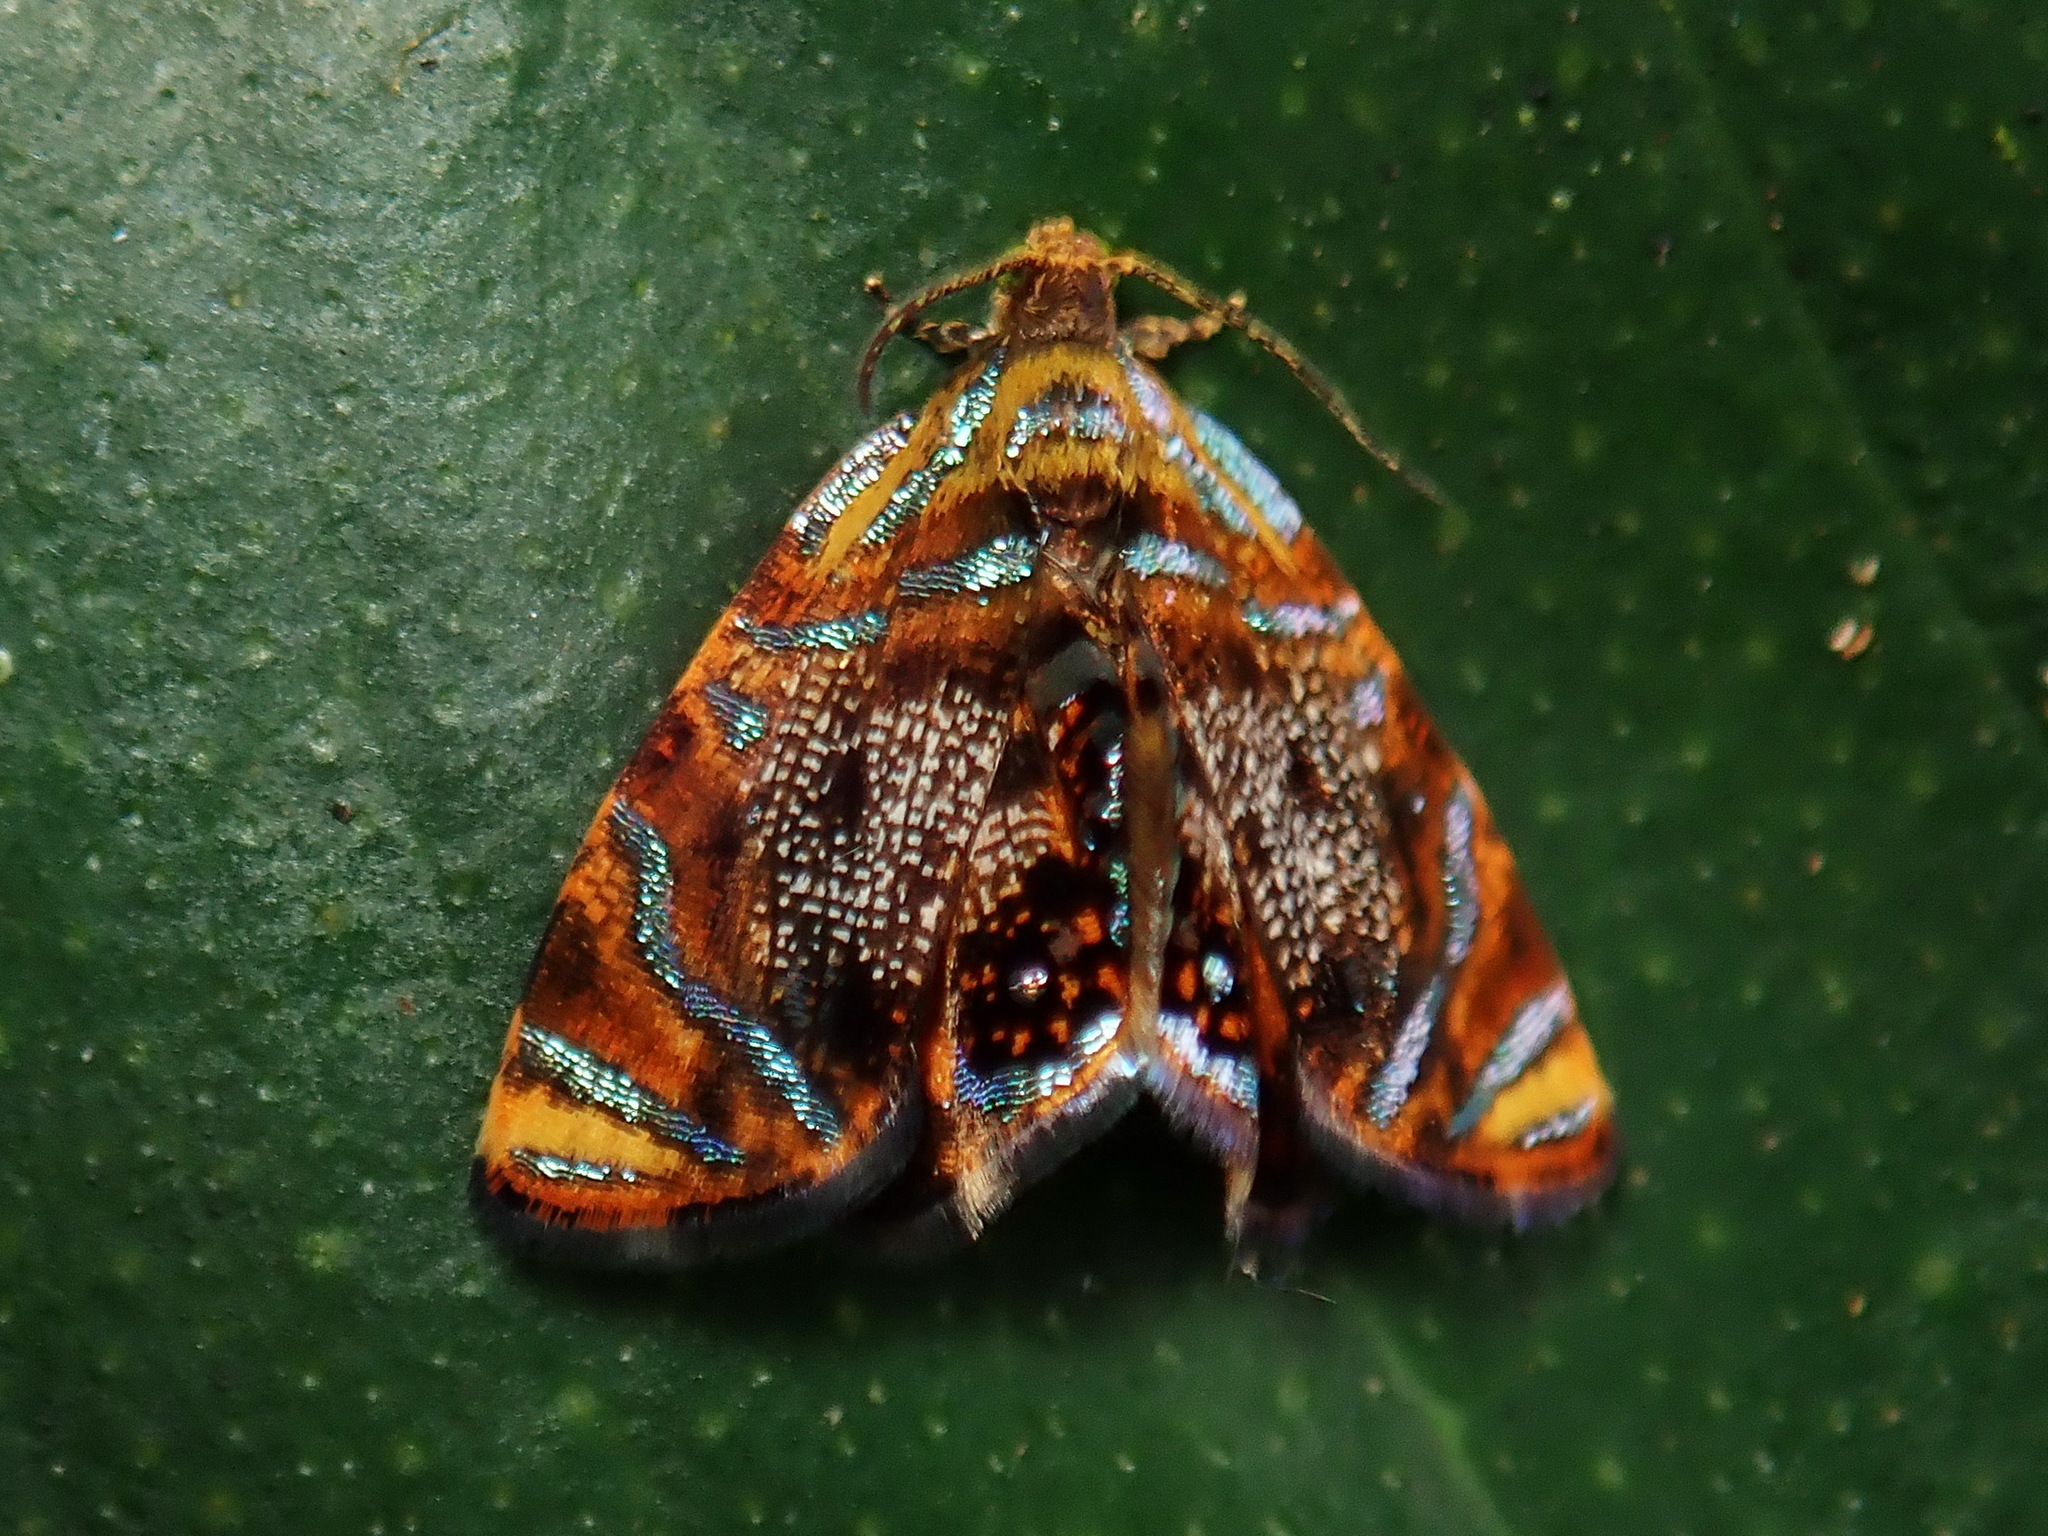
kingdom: Animalia
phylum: Arthropoda
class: Insecta
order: Lepidoptera
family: Tortricidae
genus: Mictopsichia
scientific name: Mictopsichia mincae
